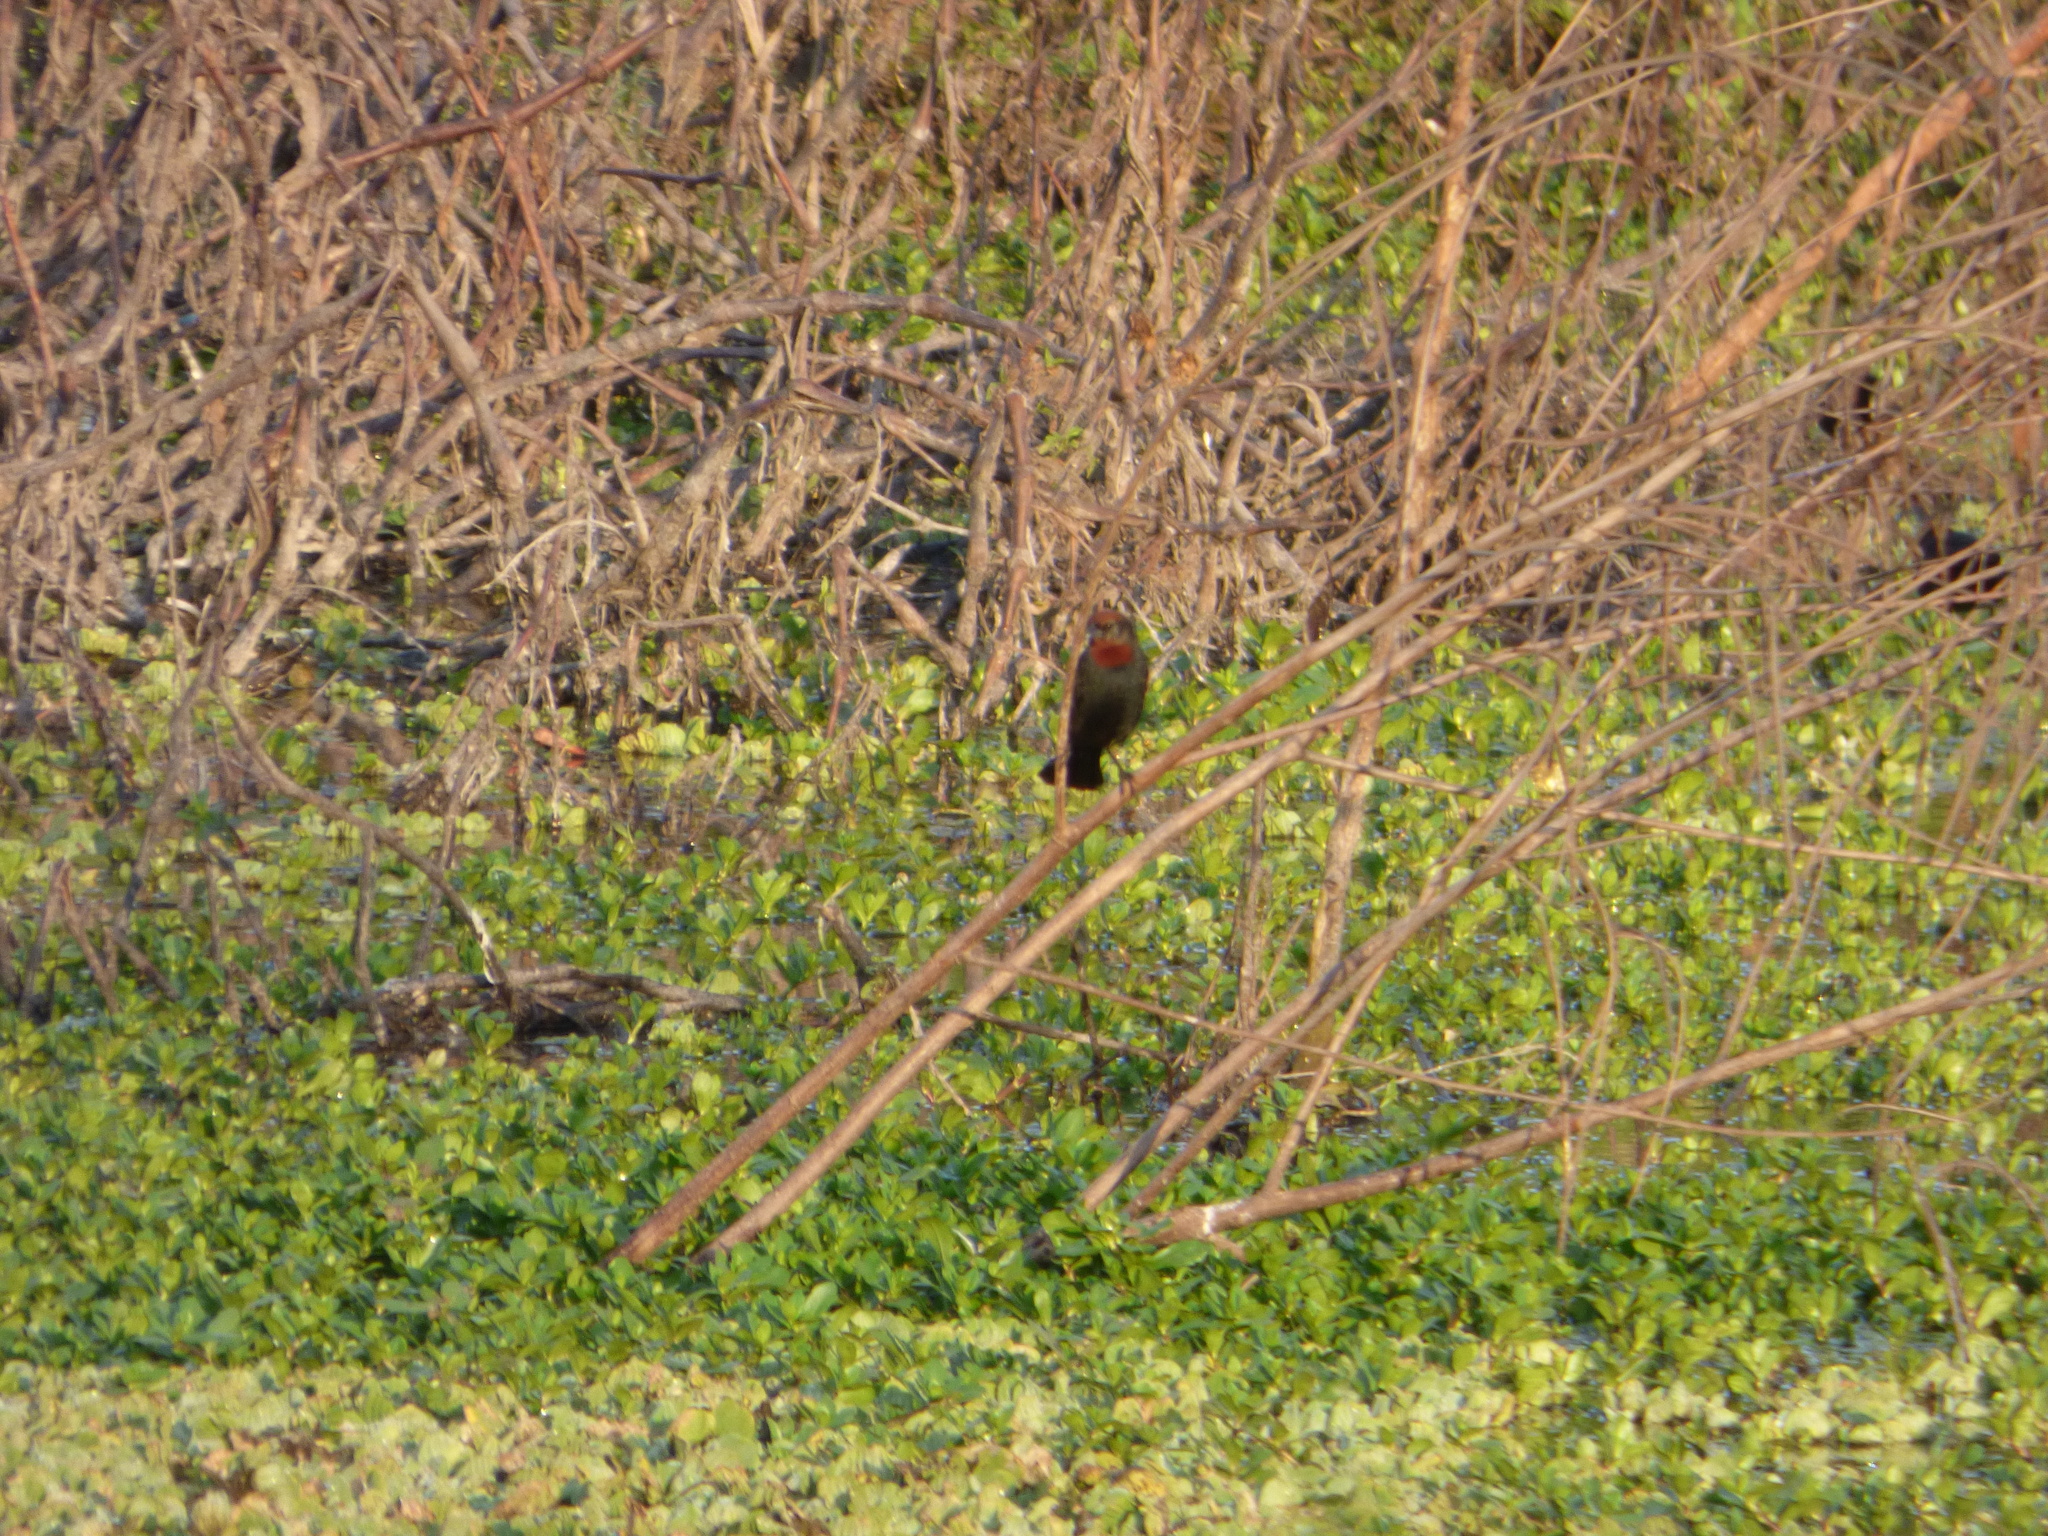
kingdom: Animalia
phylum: Chordata
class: Aves
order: Passeriformes
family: Icteridae
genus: Chrysomus
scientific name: Chrysomus ruficapillus
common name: Chestnut-capped blackbird
